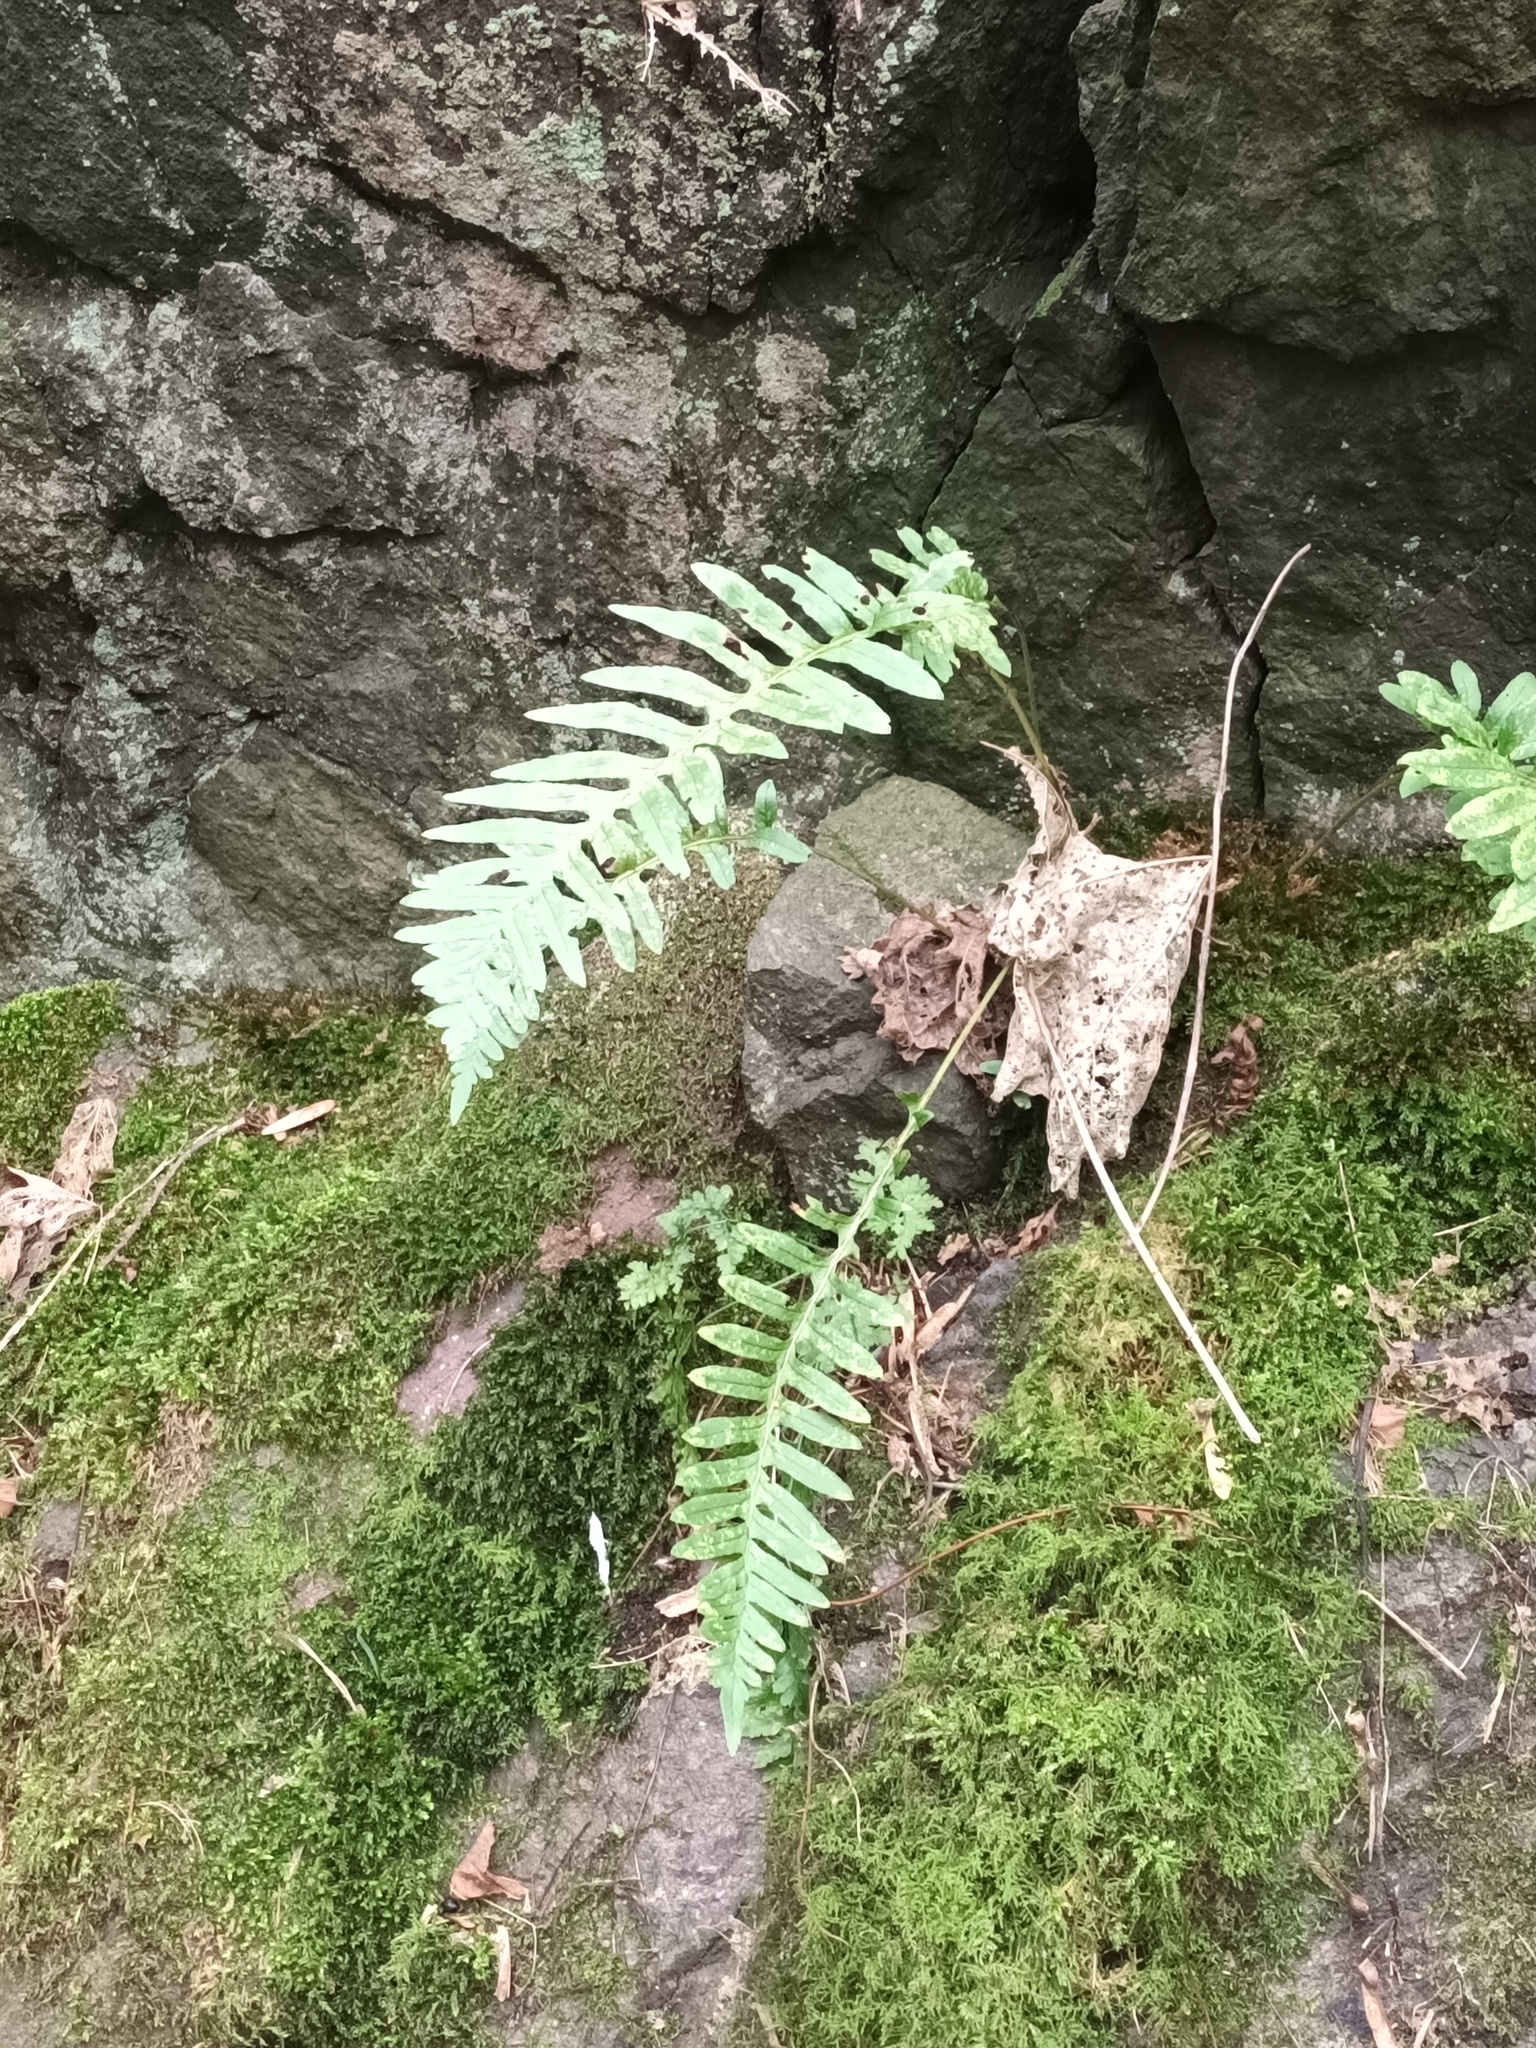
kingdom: Plantae
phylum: Tracheophyta
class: Polypodiopsida
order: Polypodiales
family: Polypodiaceae
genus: Polypodium
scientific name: Polypodium
